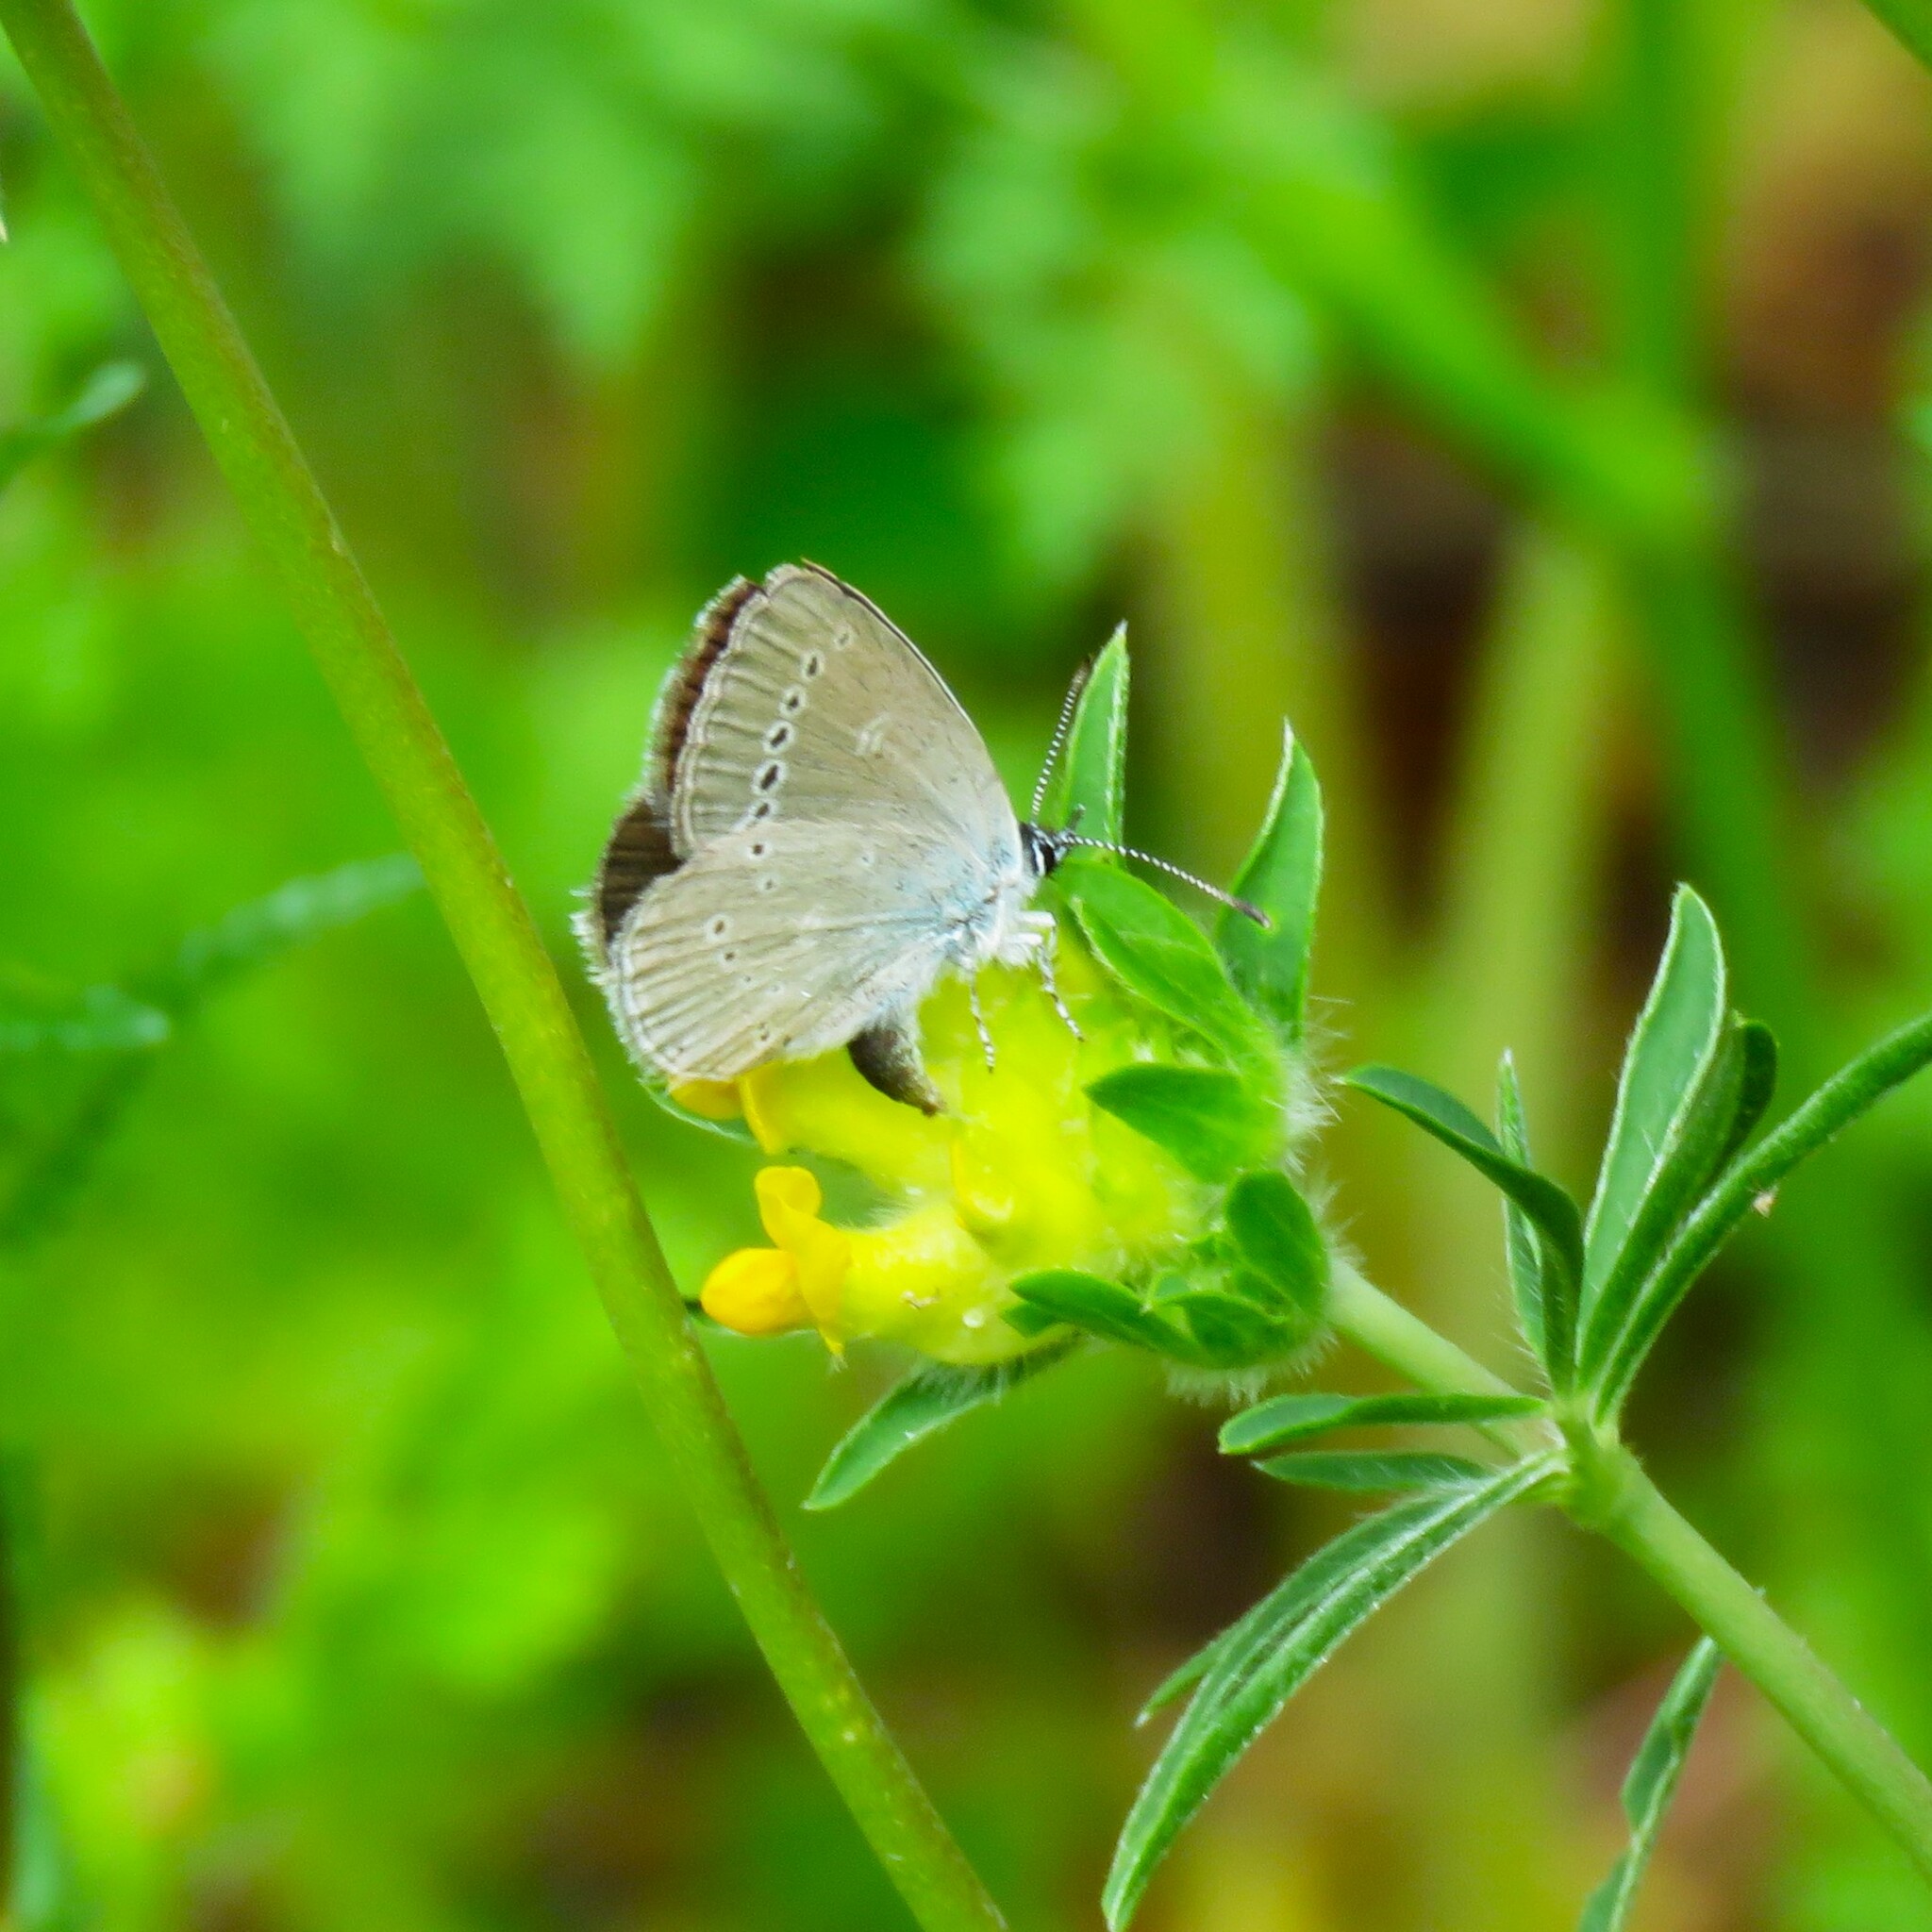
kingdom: Animalia
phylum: Arthropoda
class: Insecta
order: Lepidoptera
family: Lycaenidae
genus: Cupido
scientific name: Cupido minimus
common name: Small blue
